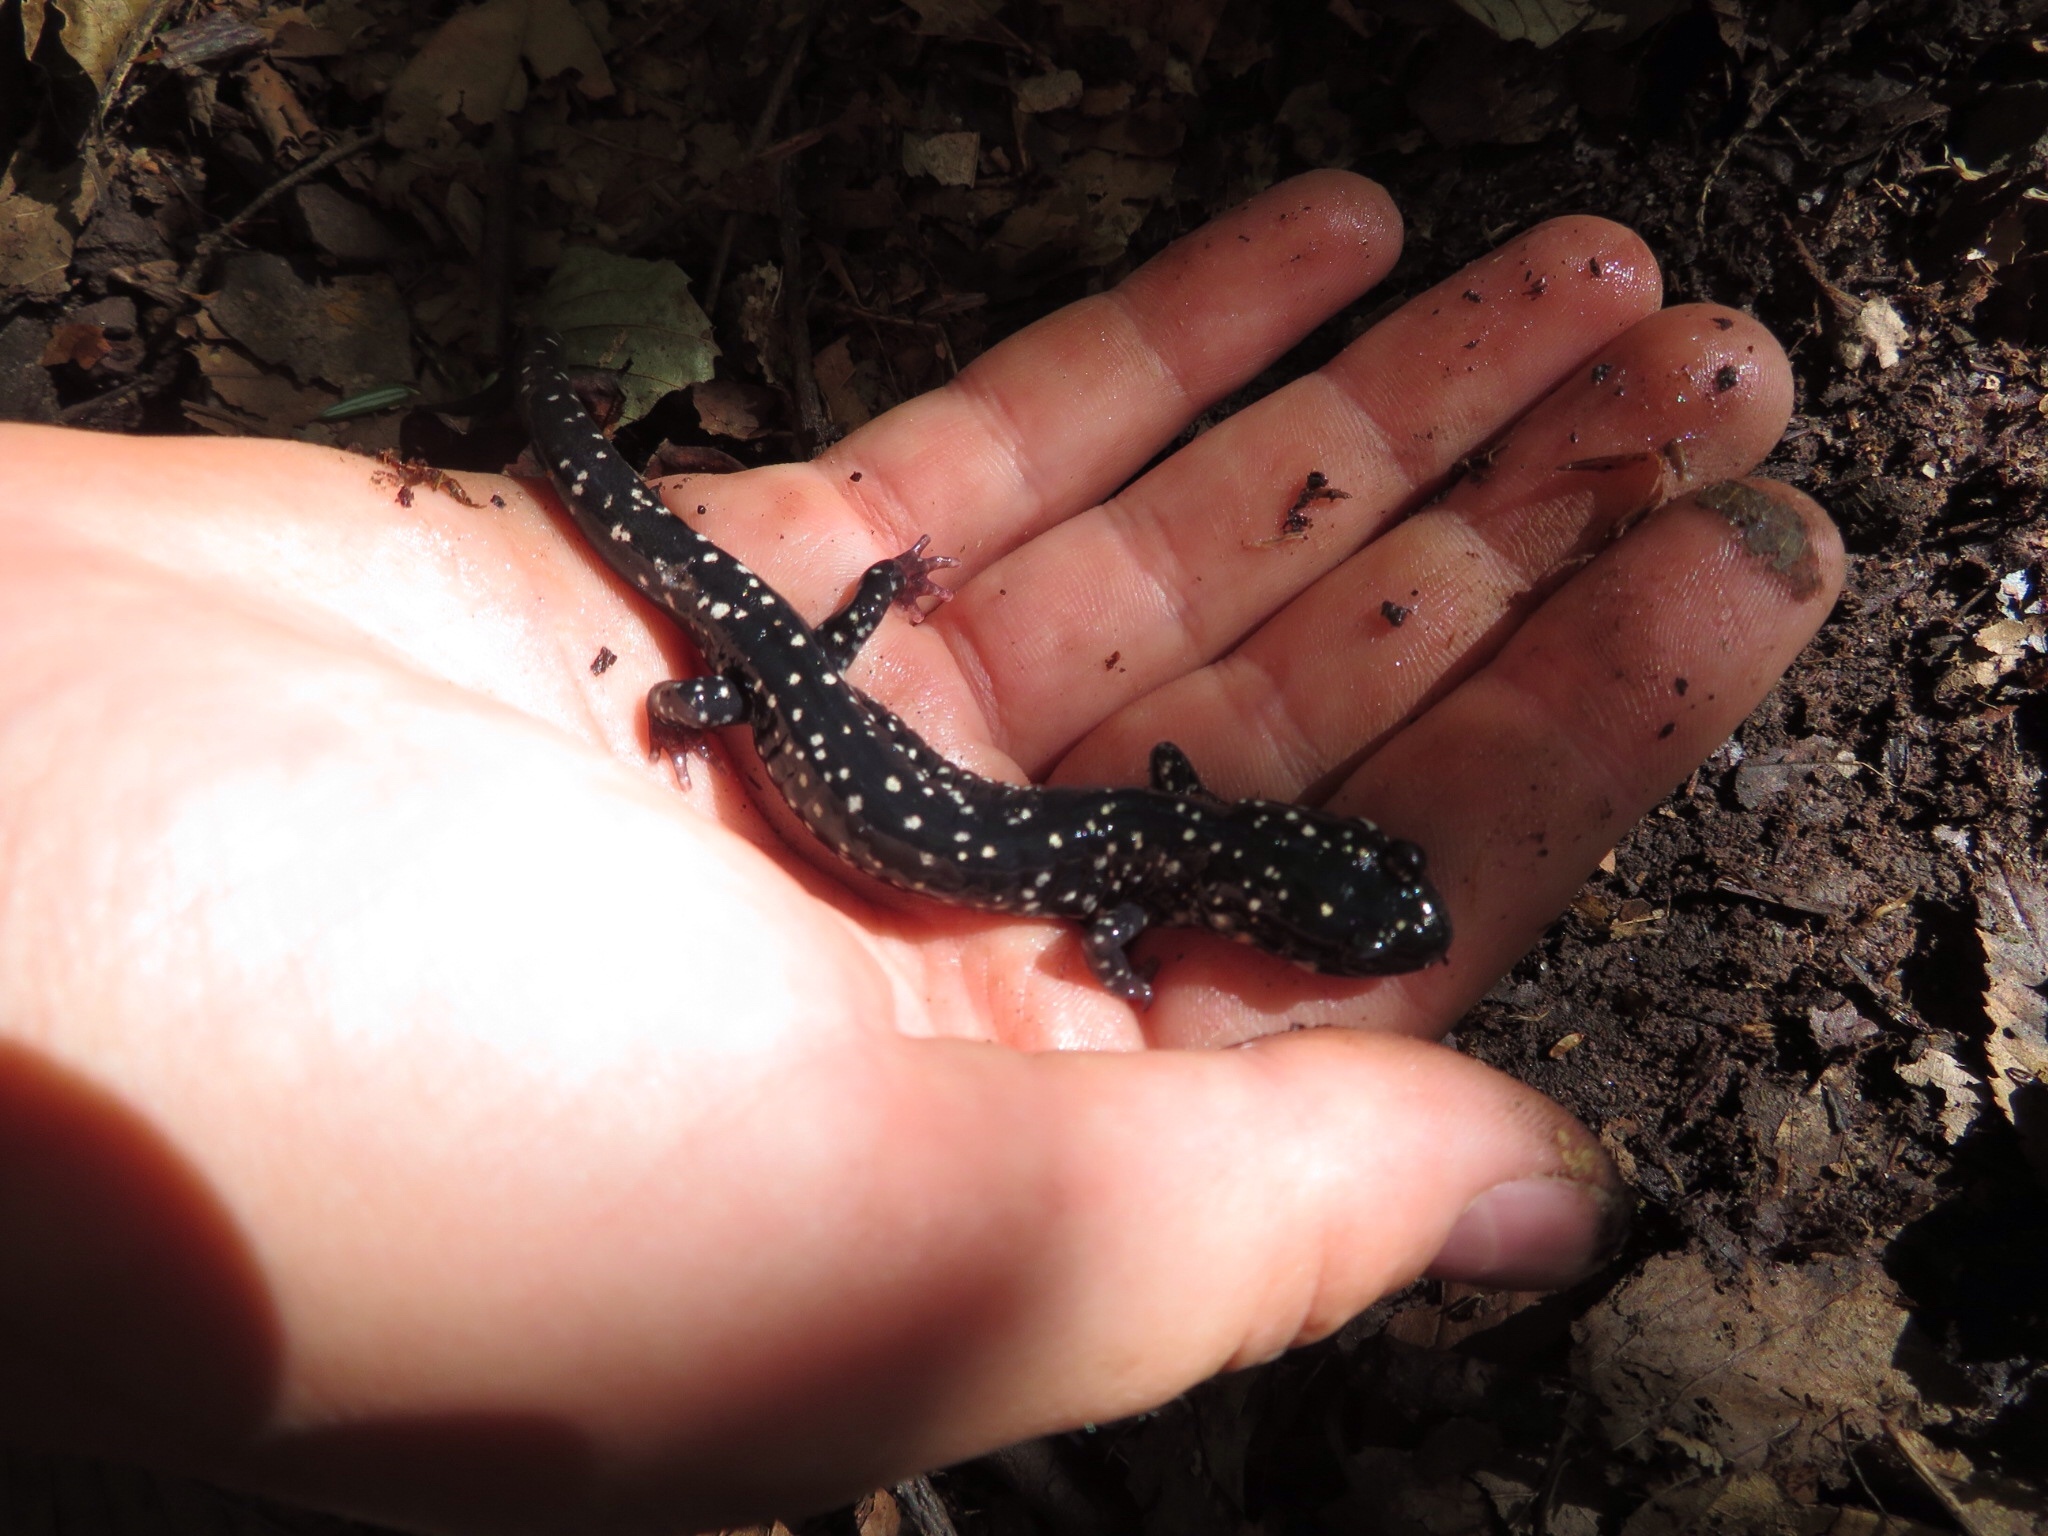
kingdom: Animalia
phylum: Chordata
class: Amphibia
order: Caudata
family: Plethodontidae
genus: Plethodon
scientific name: Plethodon glutinosus
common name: Northern slimy salamander
